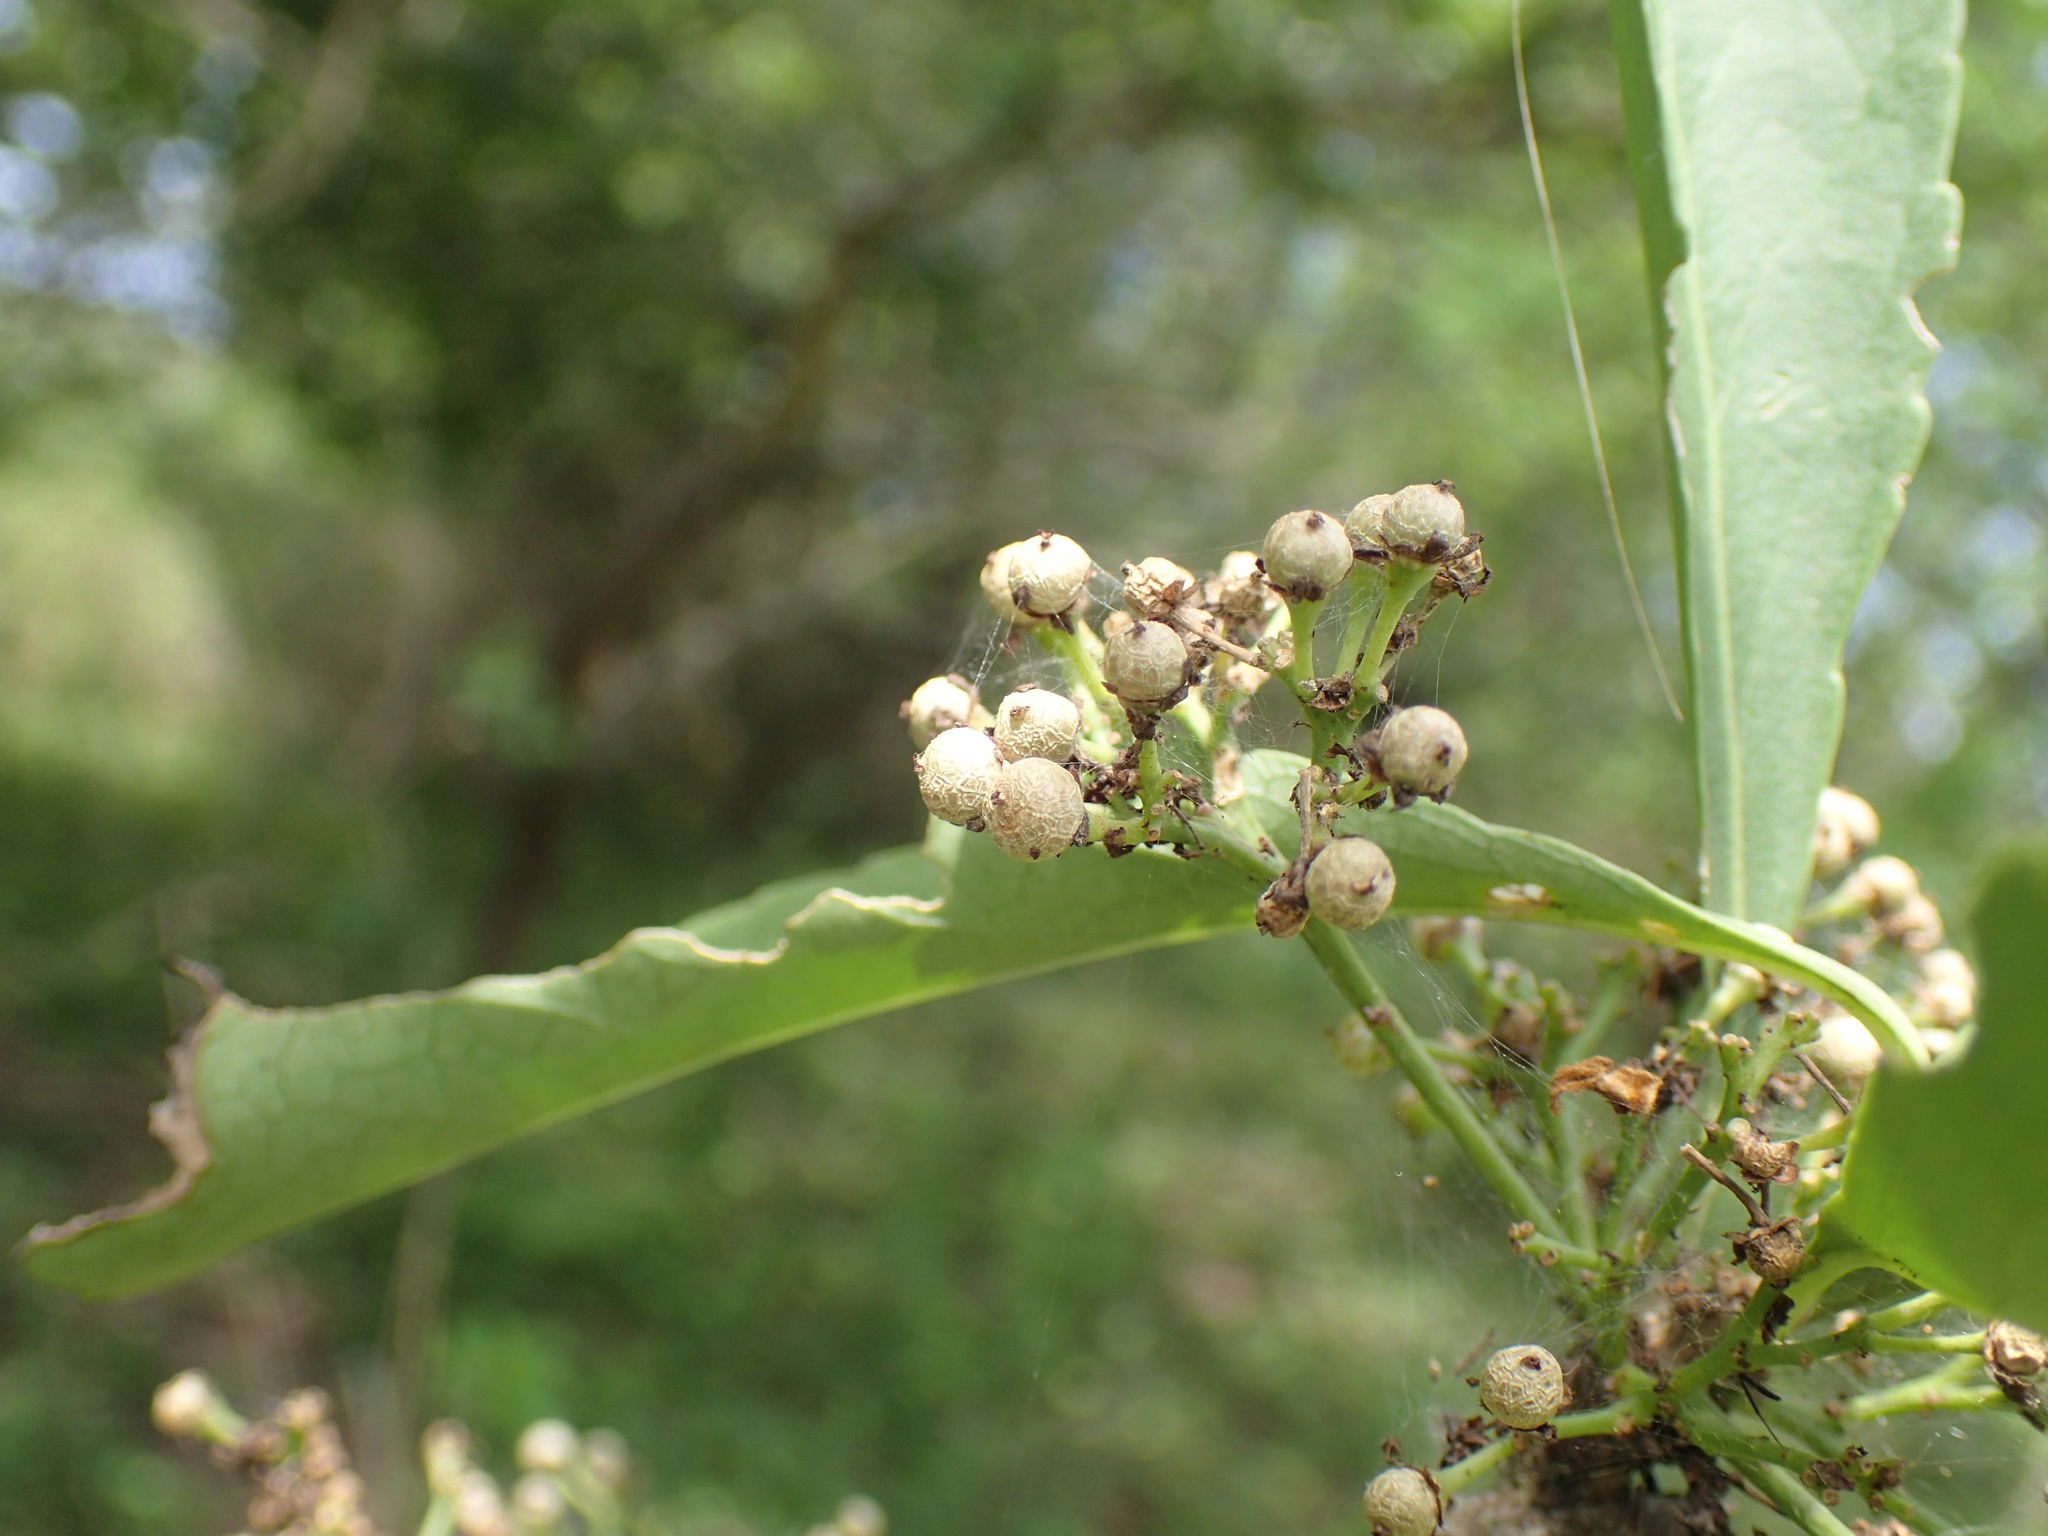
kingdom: Plantae
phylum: Tracheophyta
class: Magnoliopsida
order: Celastrales
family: Celastraceae
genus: Gymnosporia
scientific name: Gymnosporia buxifolia
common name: Common spike-thorn
